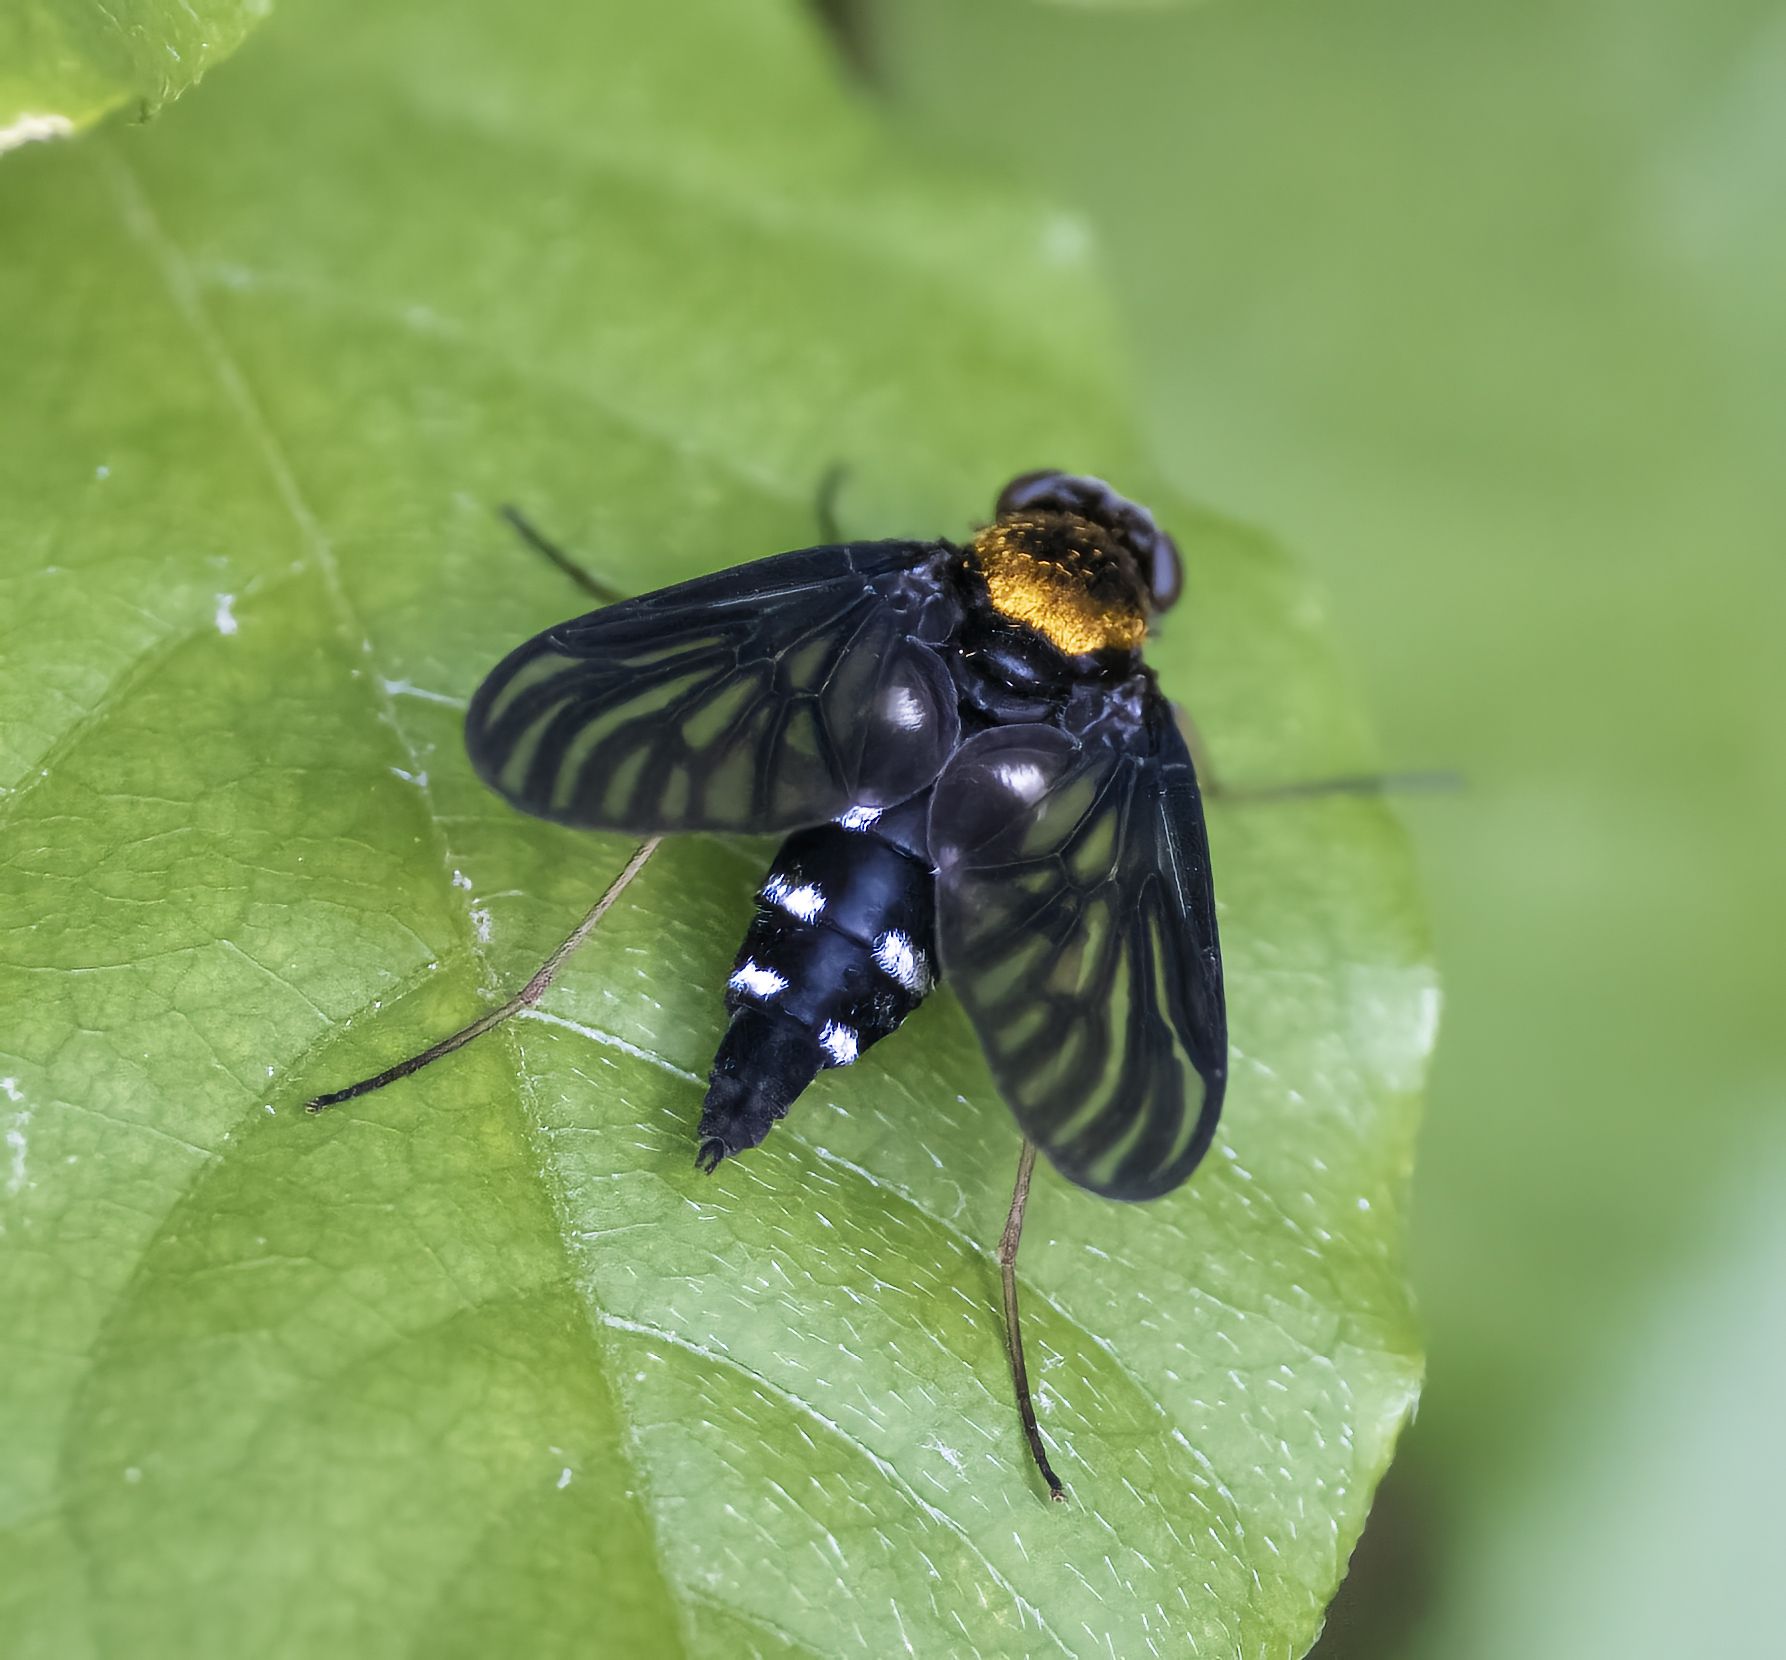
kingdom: Animalia
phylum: Arthropoda
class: Insecta
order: Diptera
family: Rhagionidae
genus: Chrysopilus
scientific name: Chrysopilus thoracicus
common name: Golden-backed snipe fly
